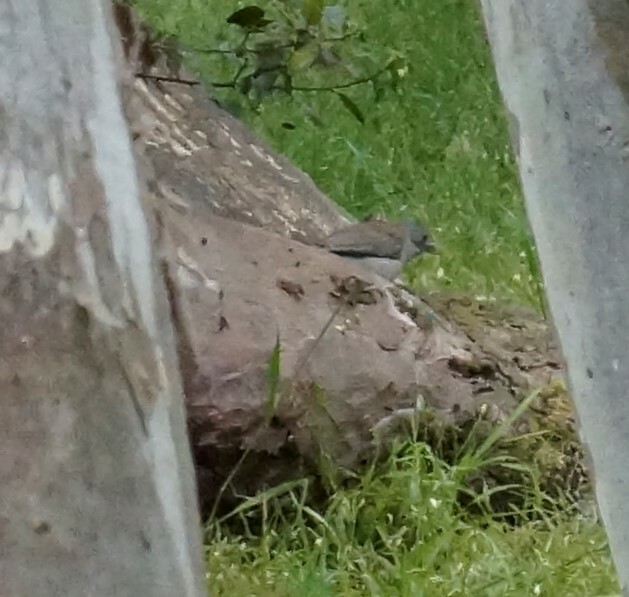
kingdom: Animalia
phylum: Chordata
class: Aves
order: Passeriformes
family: Pachycephalidae
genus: Colluricincla
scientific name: Colluricincla harmonica
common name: Grey shrikethrush
